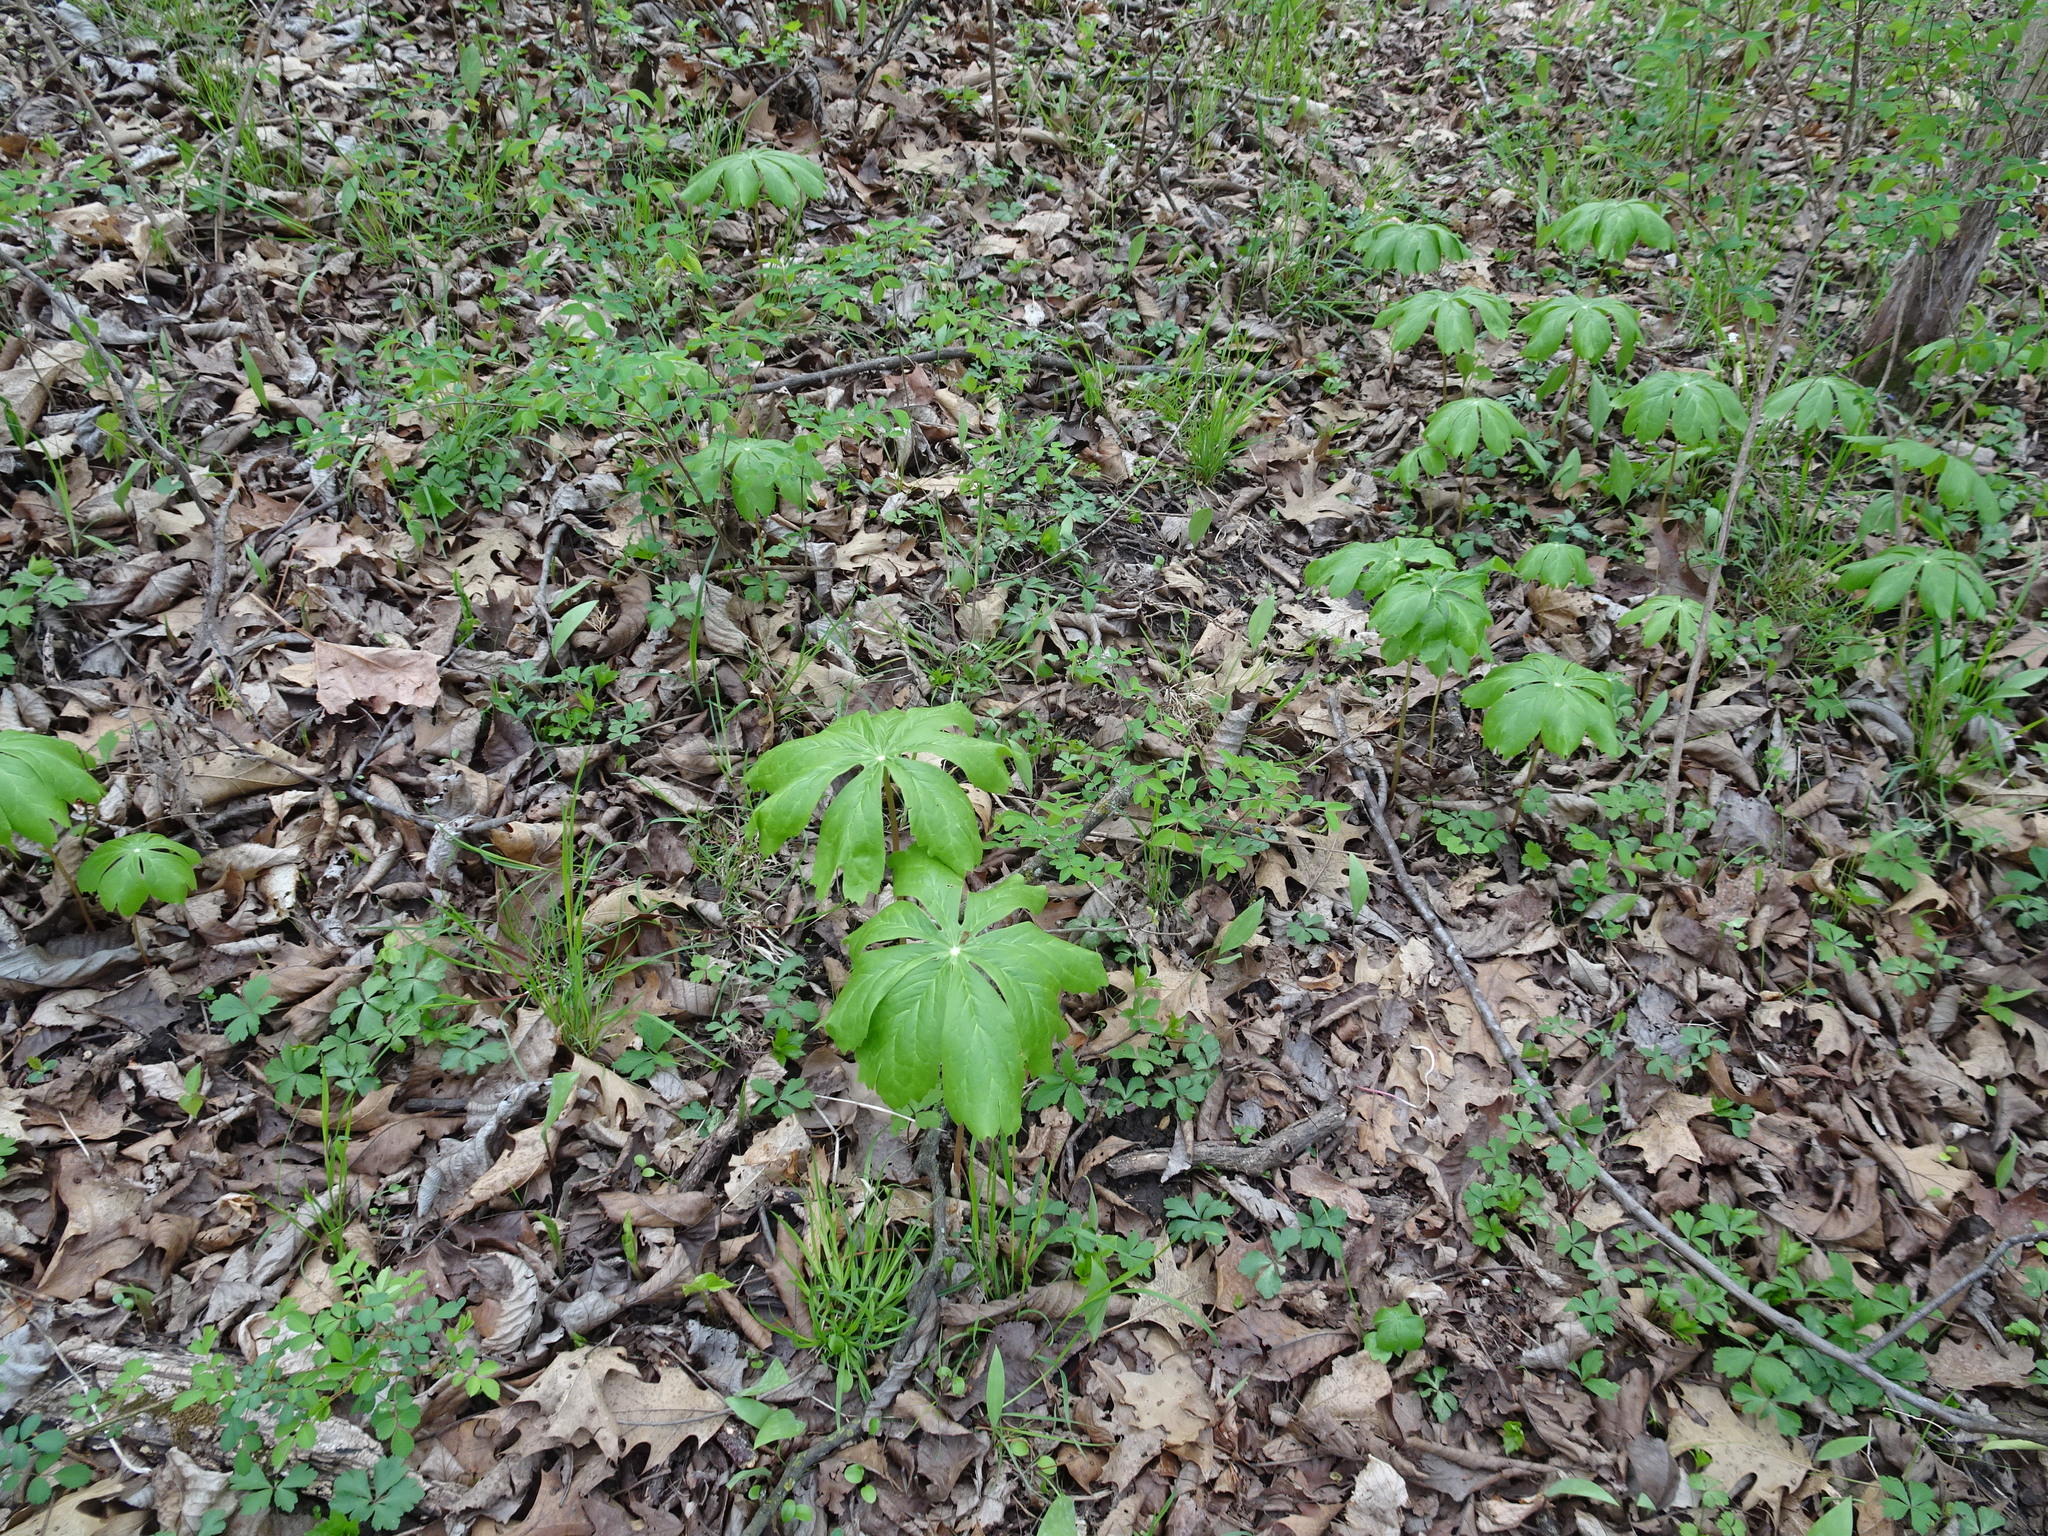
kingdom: Plantae
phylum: Tracheophyta
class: Magnoliopsida
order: Ranunculales
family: Berberidaceae
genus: Podophyllum
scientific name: Podophyllum peltatum
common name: Wild mandrake
